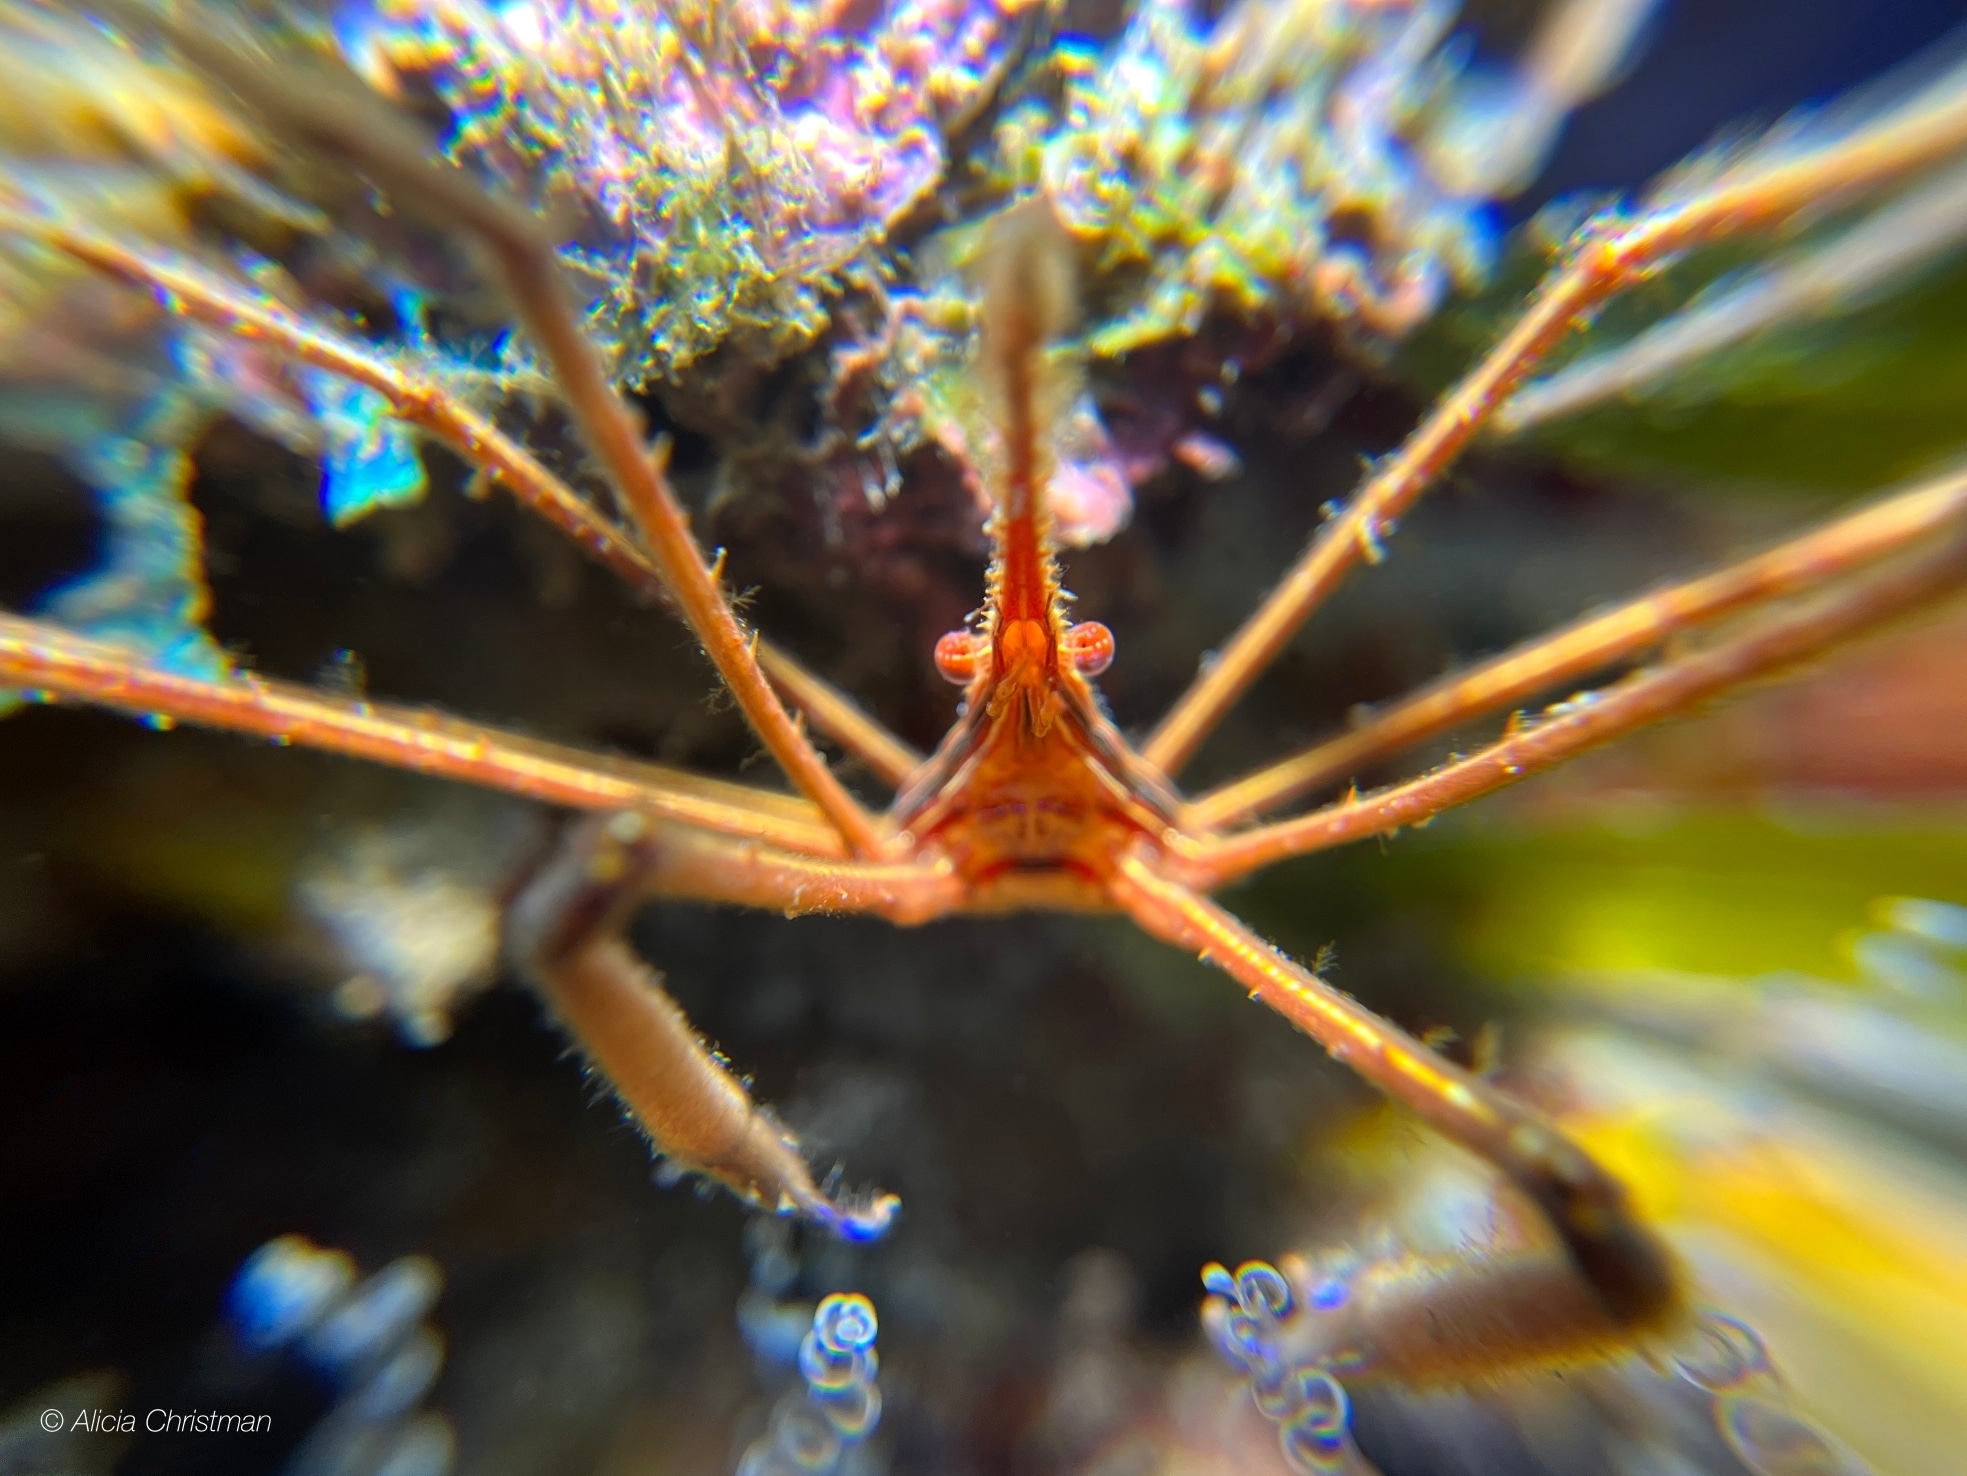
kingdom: Animalia
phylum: Arthropoda
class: Malacostraca
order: Decapoda
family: Inachoididae
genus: Stenorhynchus
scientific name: Stenorhynchus seticornis
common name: Arrow crab
